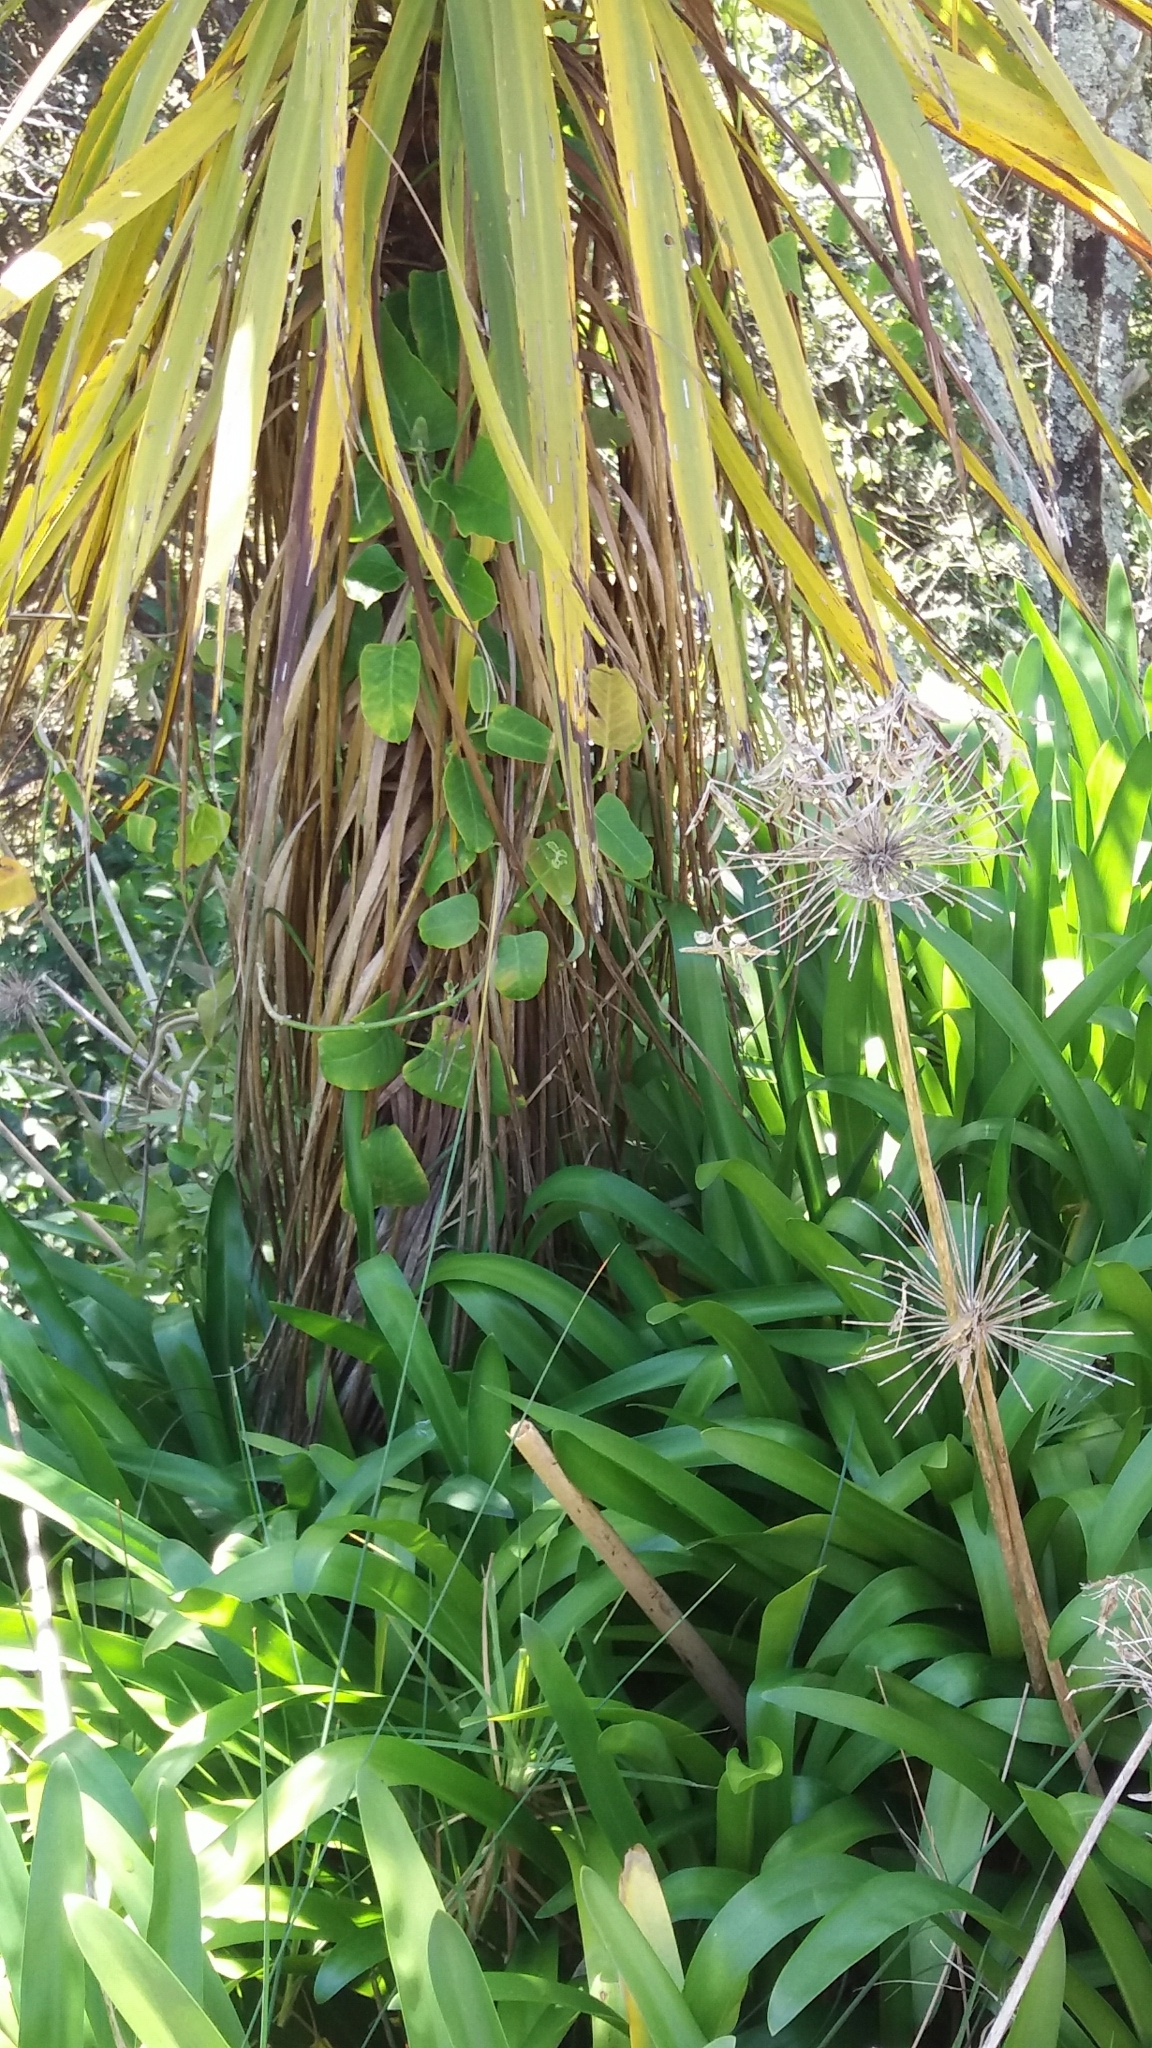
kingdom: Plantae
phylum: Tracheophyta
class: Magnoliopsida
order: Gentianales
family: Apocynaceae
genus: Araujia
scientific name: Araujia sericifera
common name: White bladderflower
